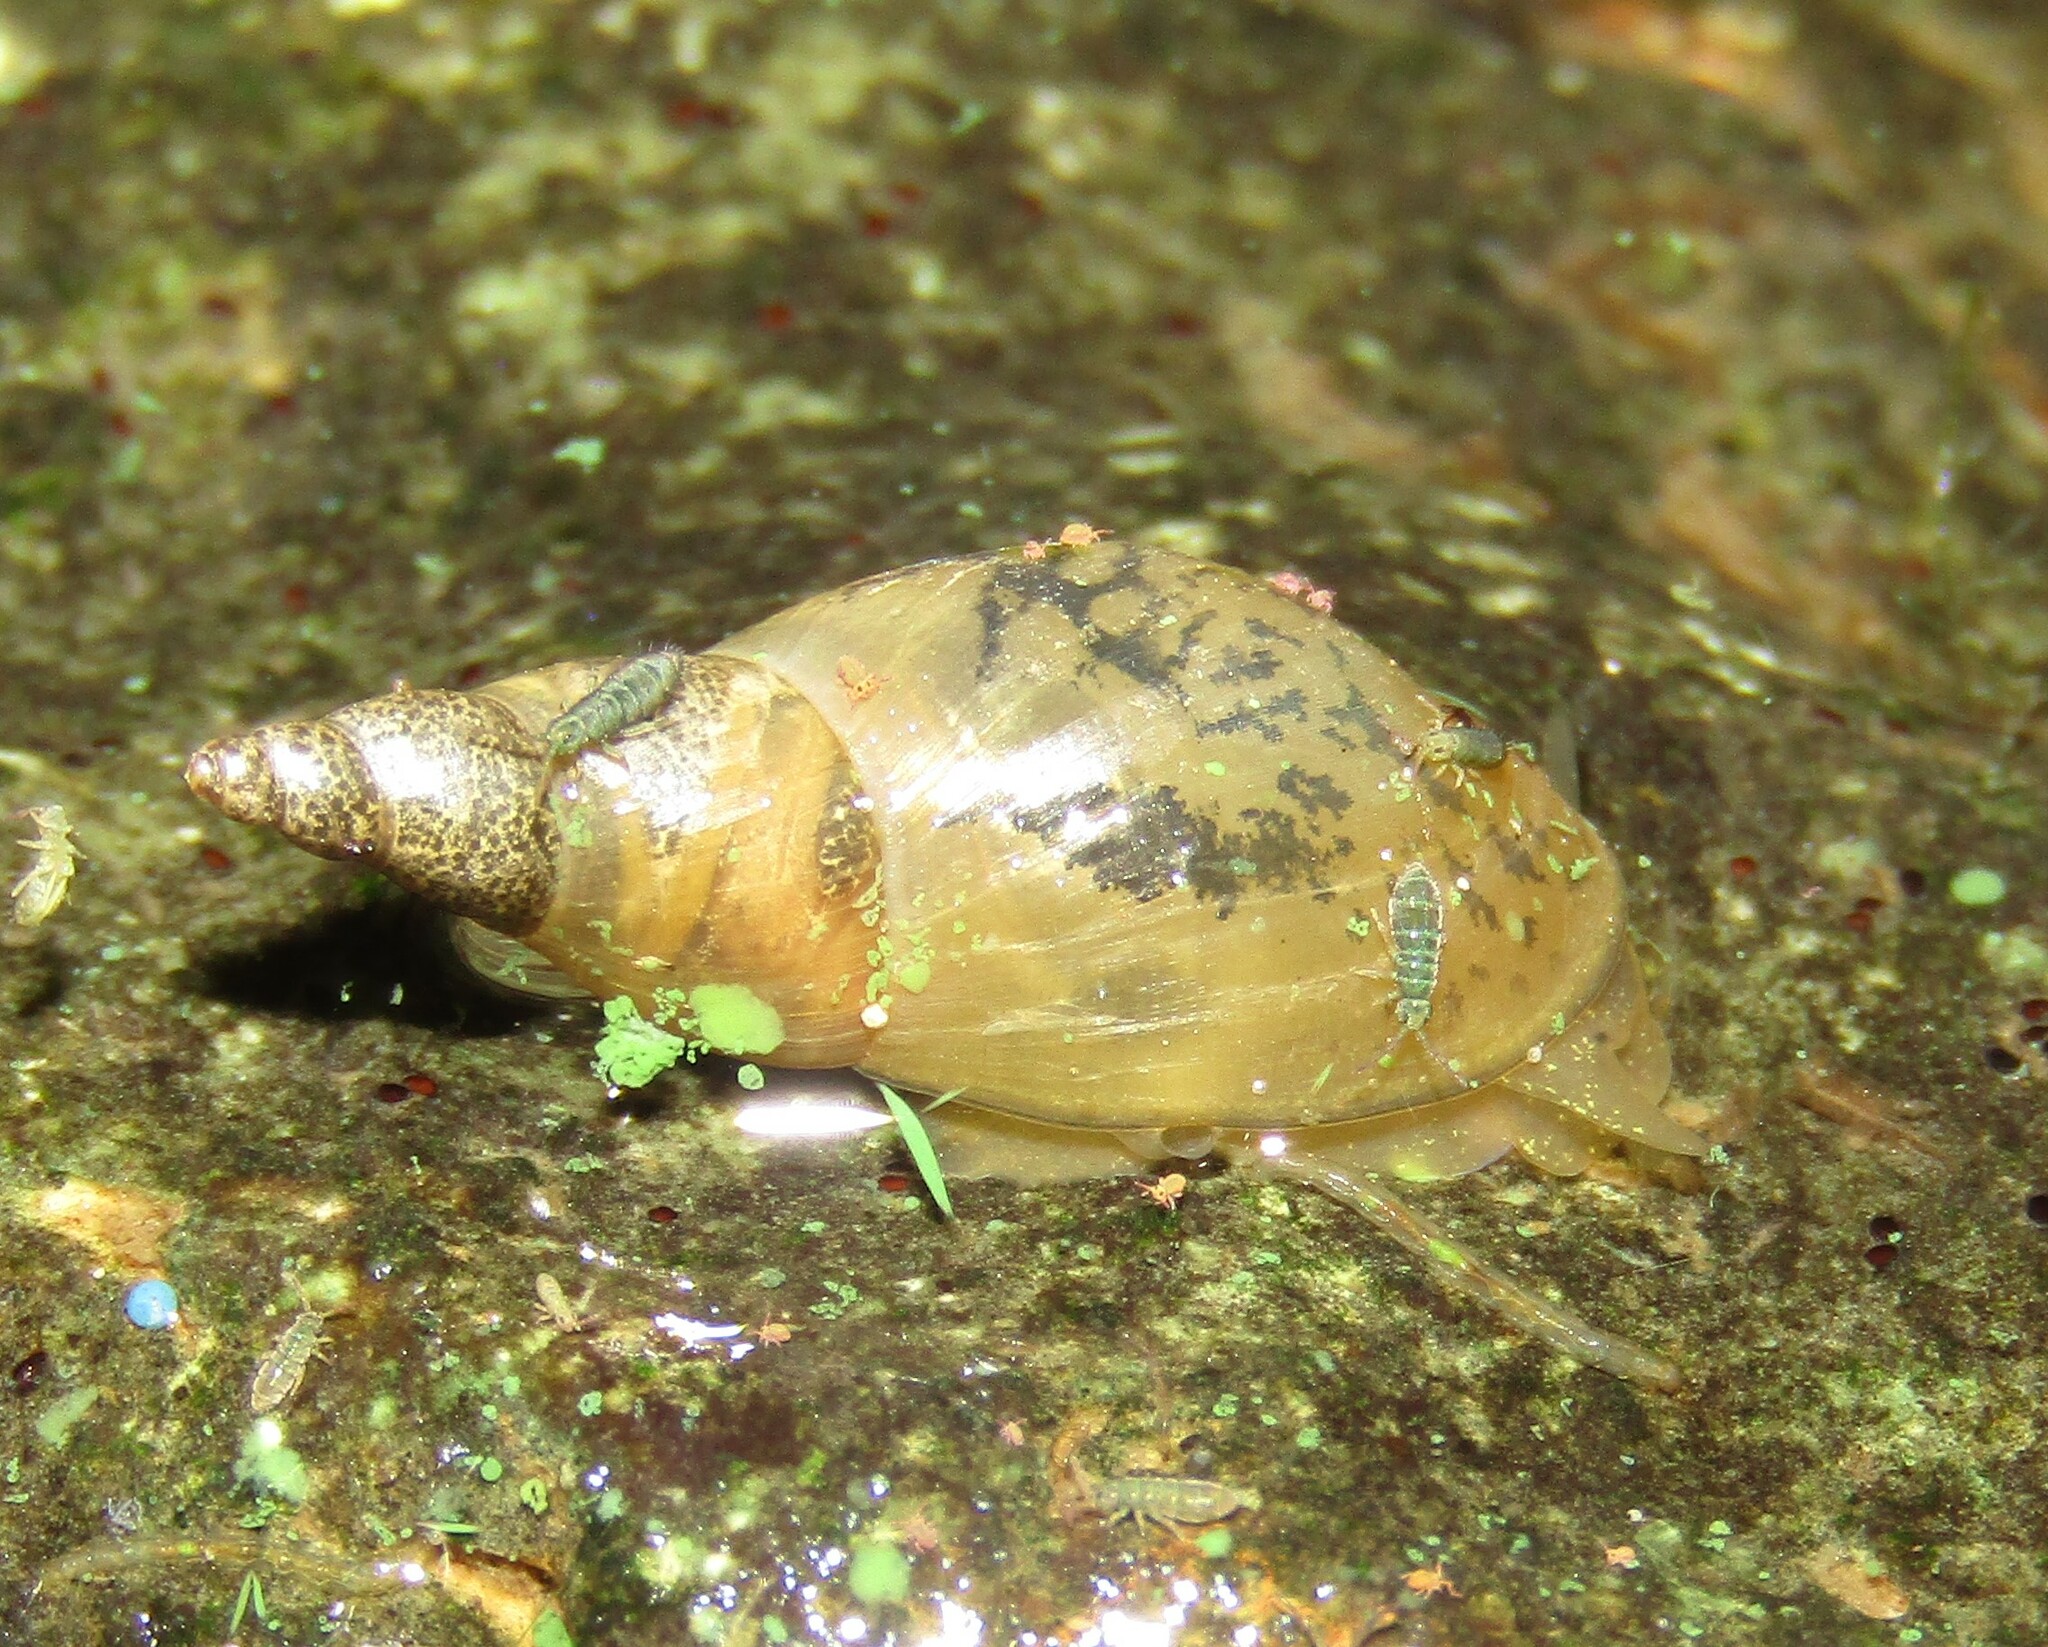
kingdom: Animalia
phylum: Mollusca
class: Gastropoda
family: Lymnaeidae
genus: Lymnaea
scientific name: Lymnaea stagnalis
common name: Great pond snail
